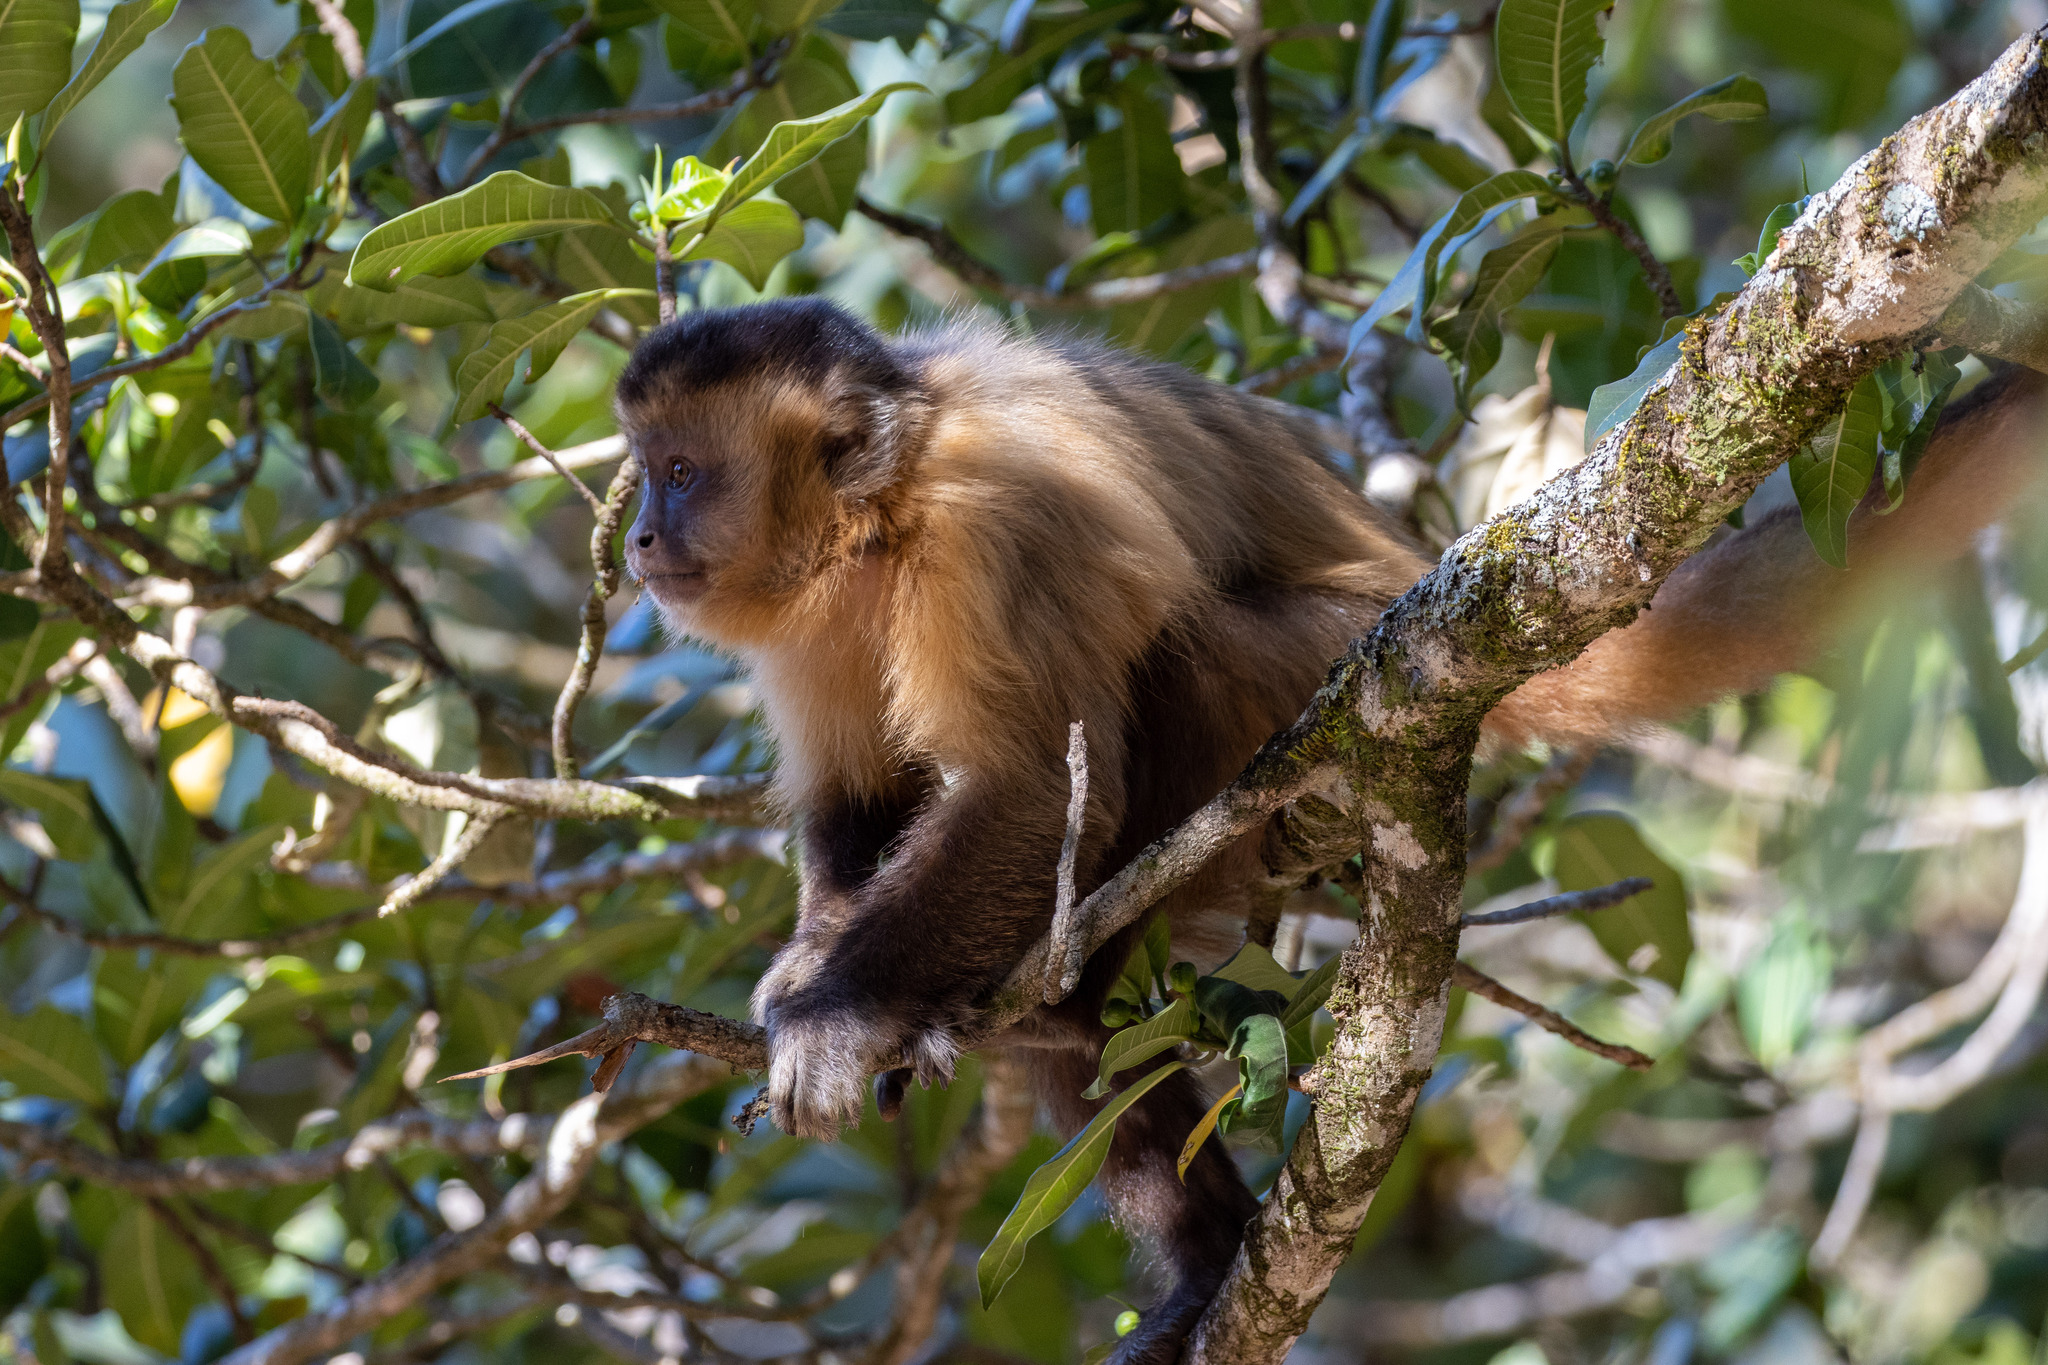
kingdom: Animalia
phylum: Chordata
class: Mammalia
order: Primates
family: Cebidae
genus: Sapajus
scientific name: Sapajus libidinosus
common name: Bearded capuchin
